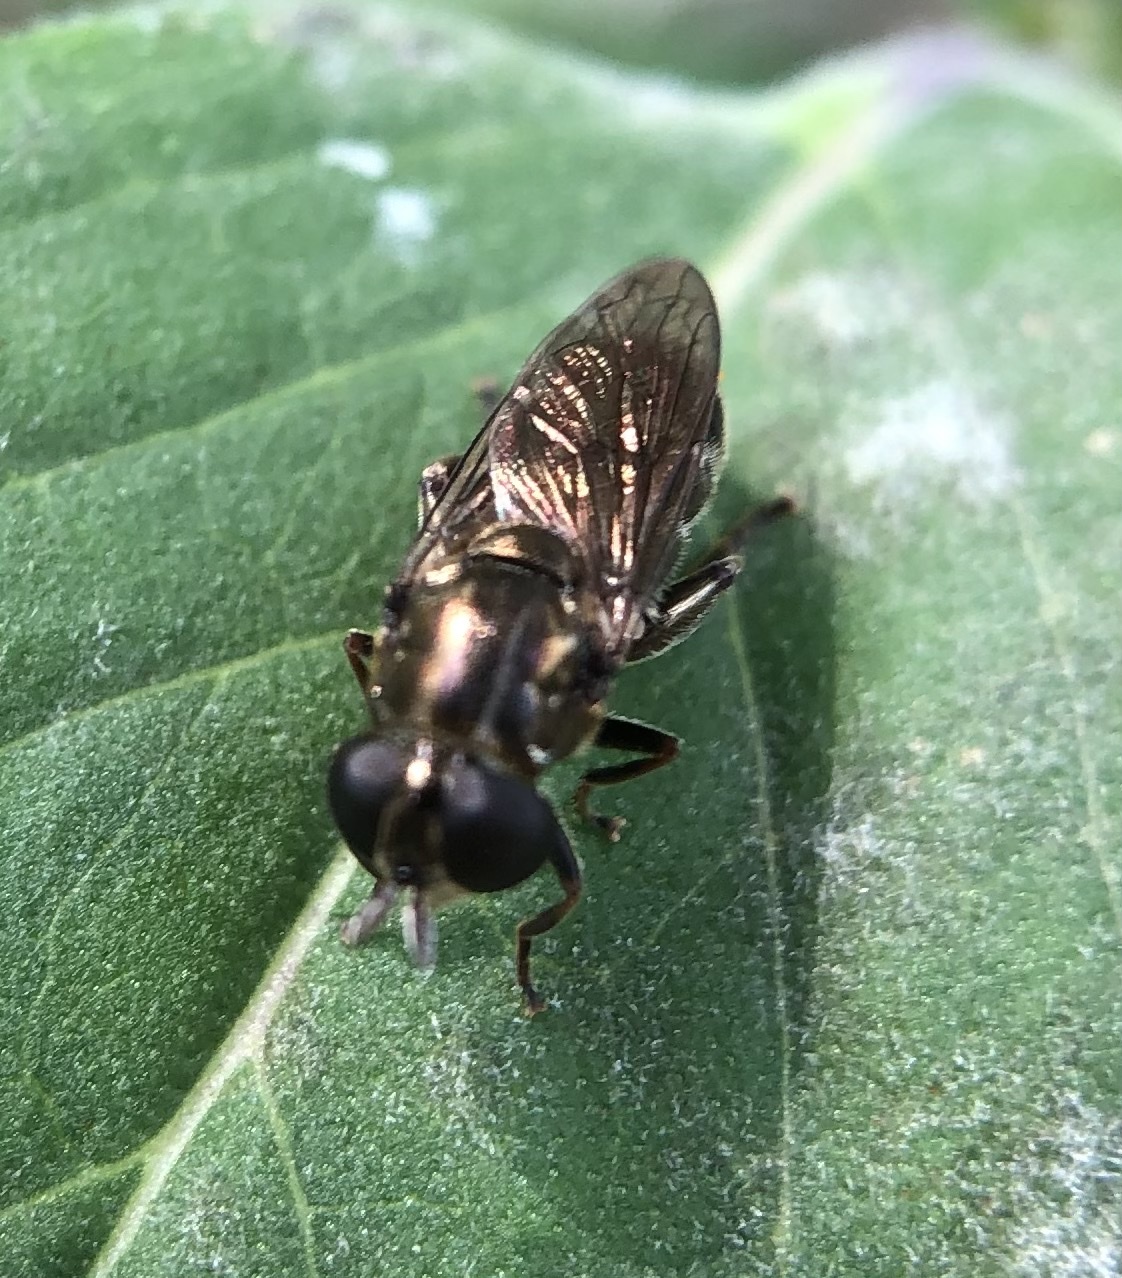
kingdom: Animalia
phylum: Arthropoda
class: Insecta
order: Diptera
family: Syrphidae
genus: Eumerus
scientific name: Eumerus
